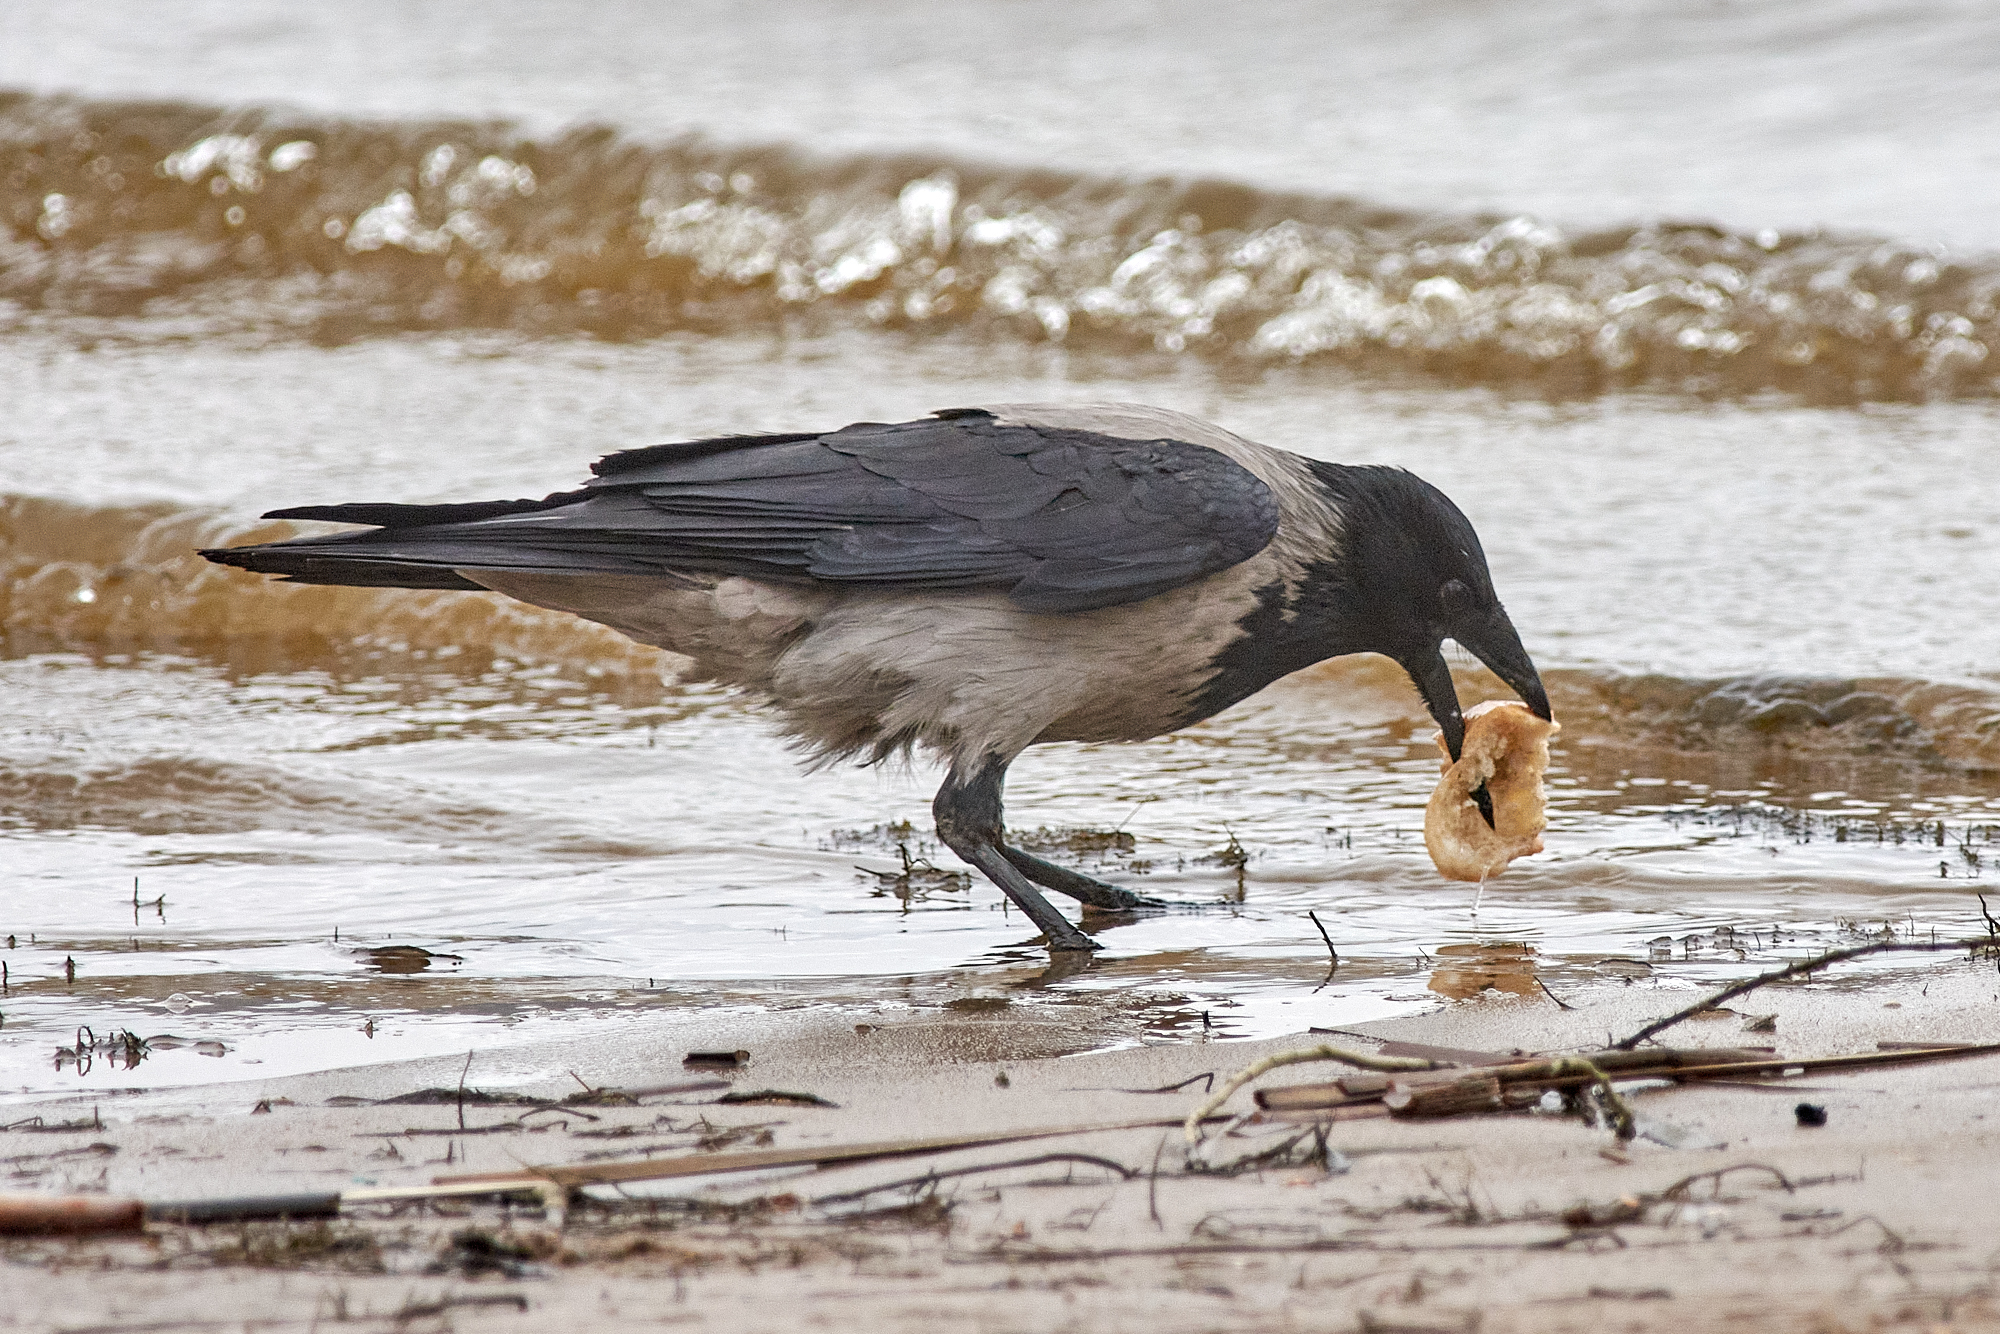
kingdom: Animalia
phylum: Chordata
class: Aves
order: Passeriformes
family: Corvidae
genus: Corvus
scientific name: Corvus cornix
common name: Hooded crow
